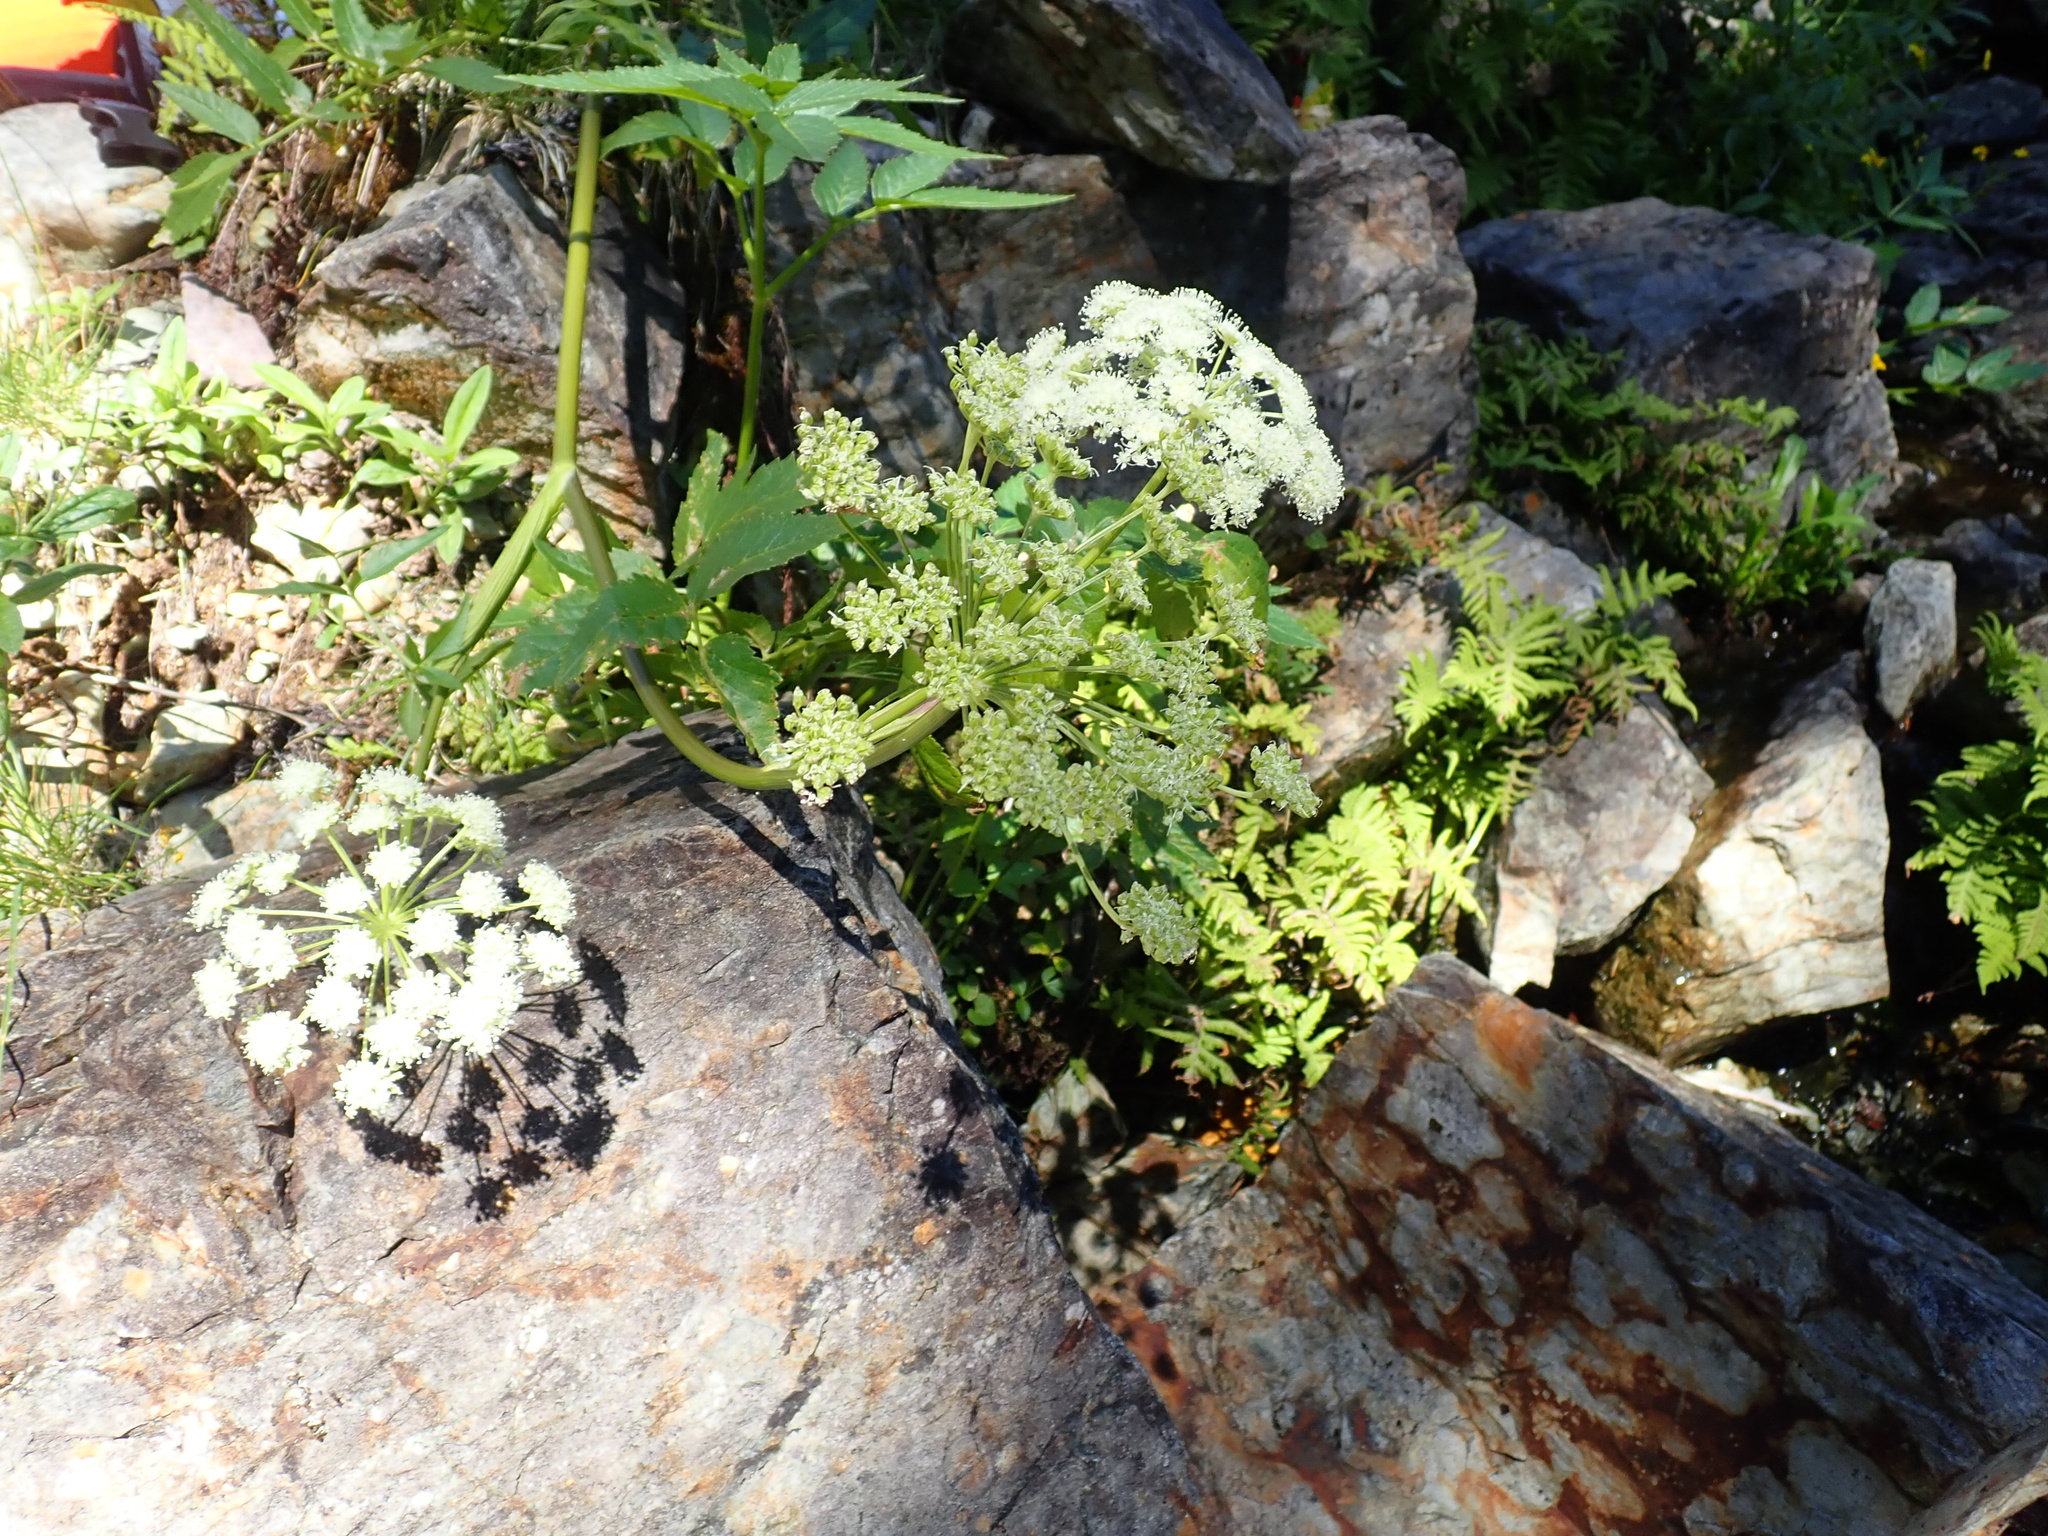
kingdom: Plantae
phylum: Tracheophyta
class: Magnoliopsida
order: Apiales
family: Apiaceae
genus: Angelica
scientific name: Angelica arguta
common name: Lyall's angelica
